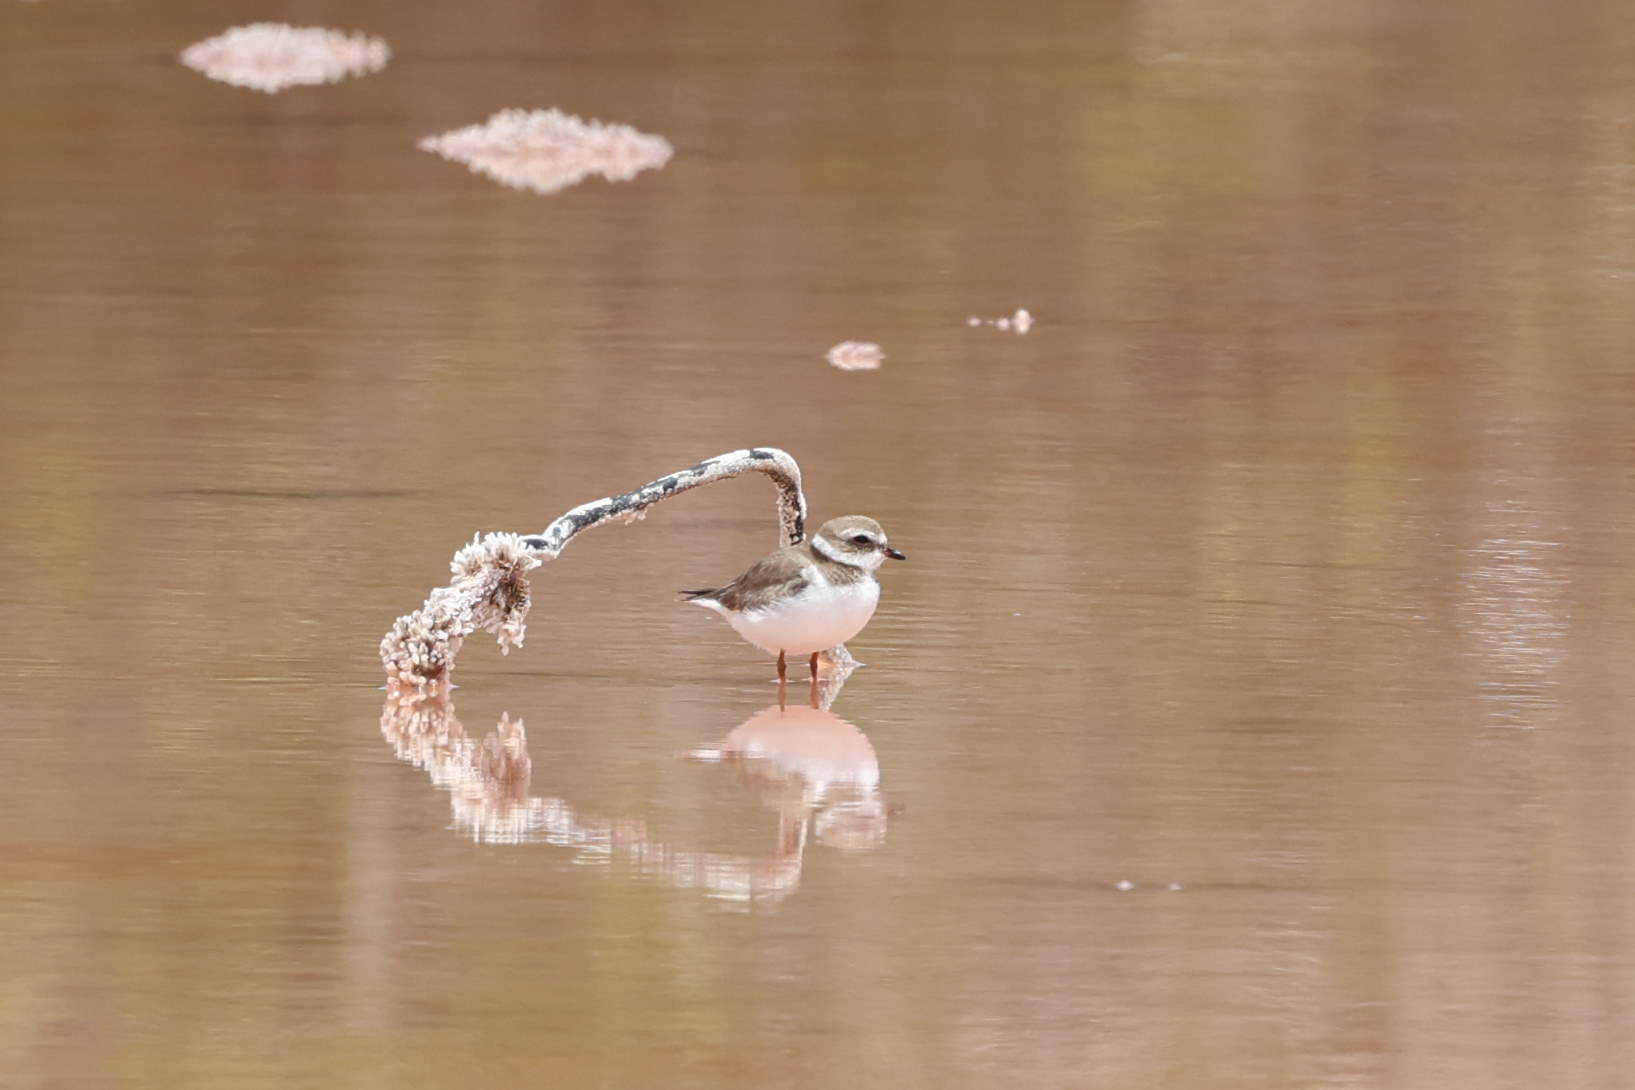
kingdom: Animalia
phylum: Chordata
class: Aves
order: Charadriiformes
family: Charadriidae
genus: Charadrius
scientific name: Charadrius semipalmatus
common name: Semipalmated plover
